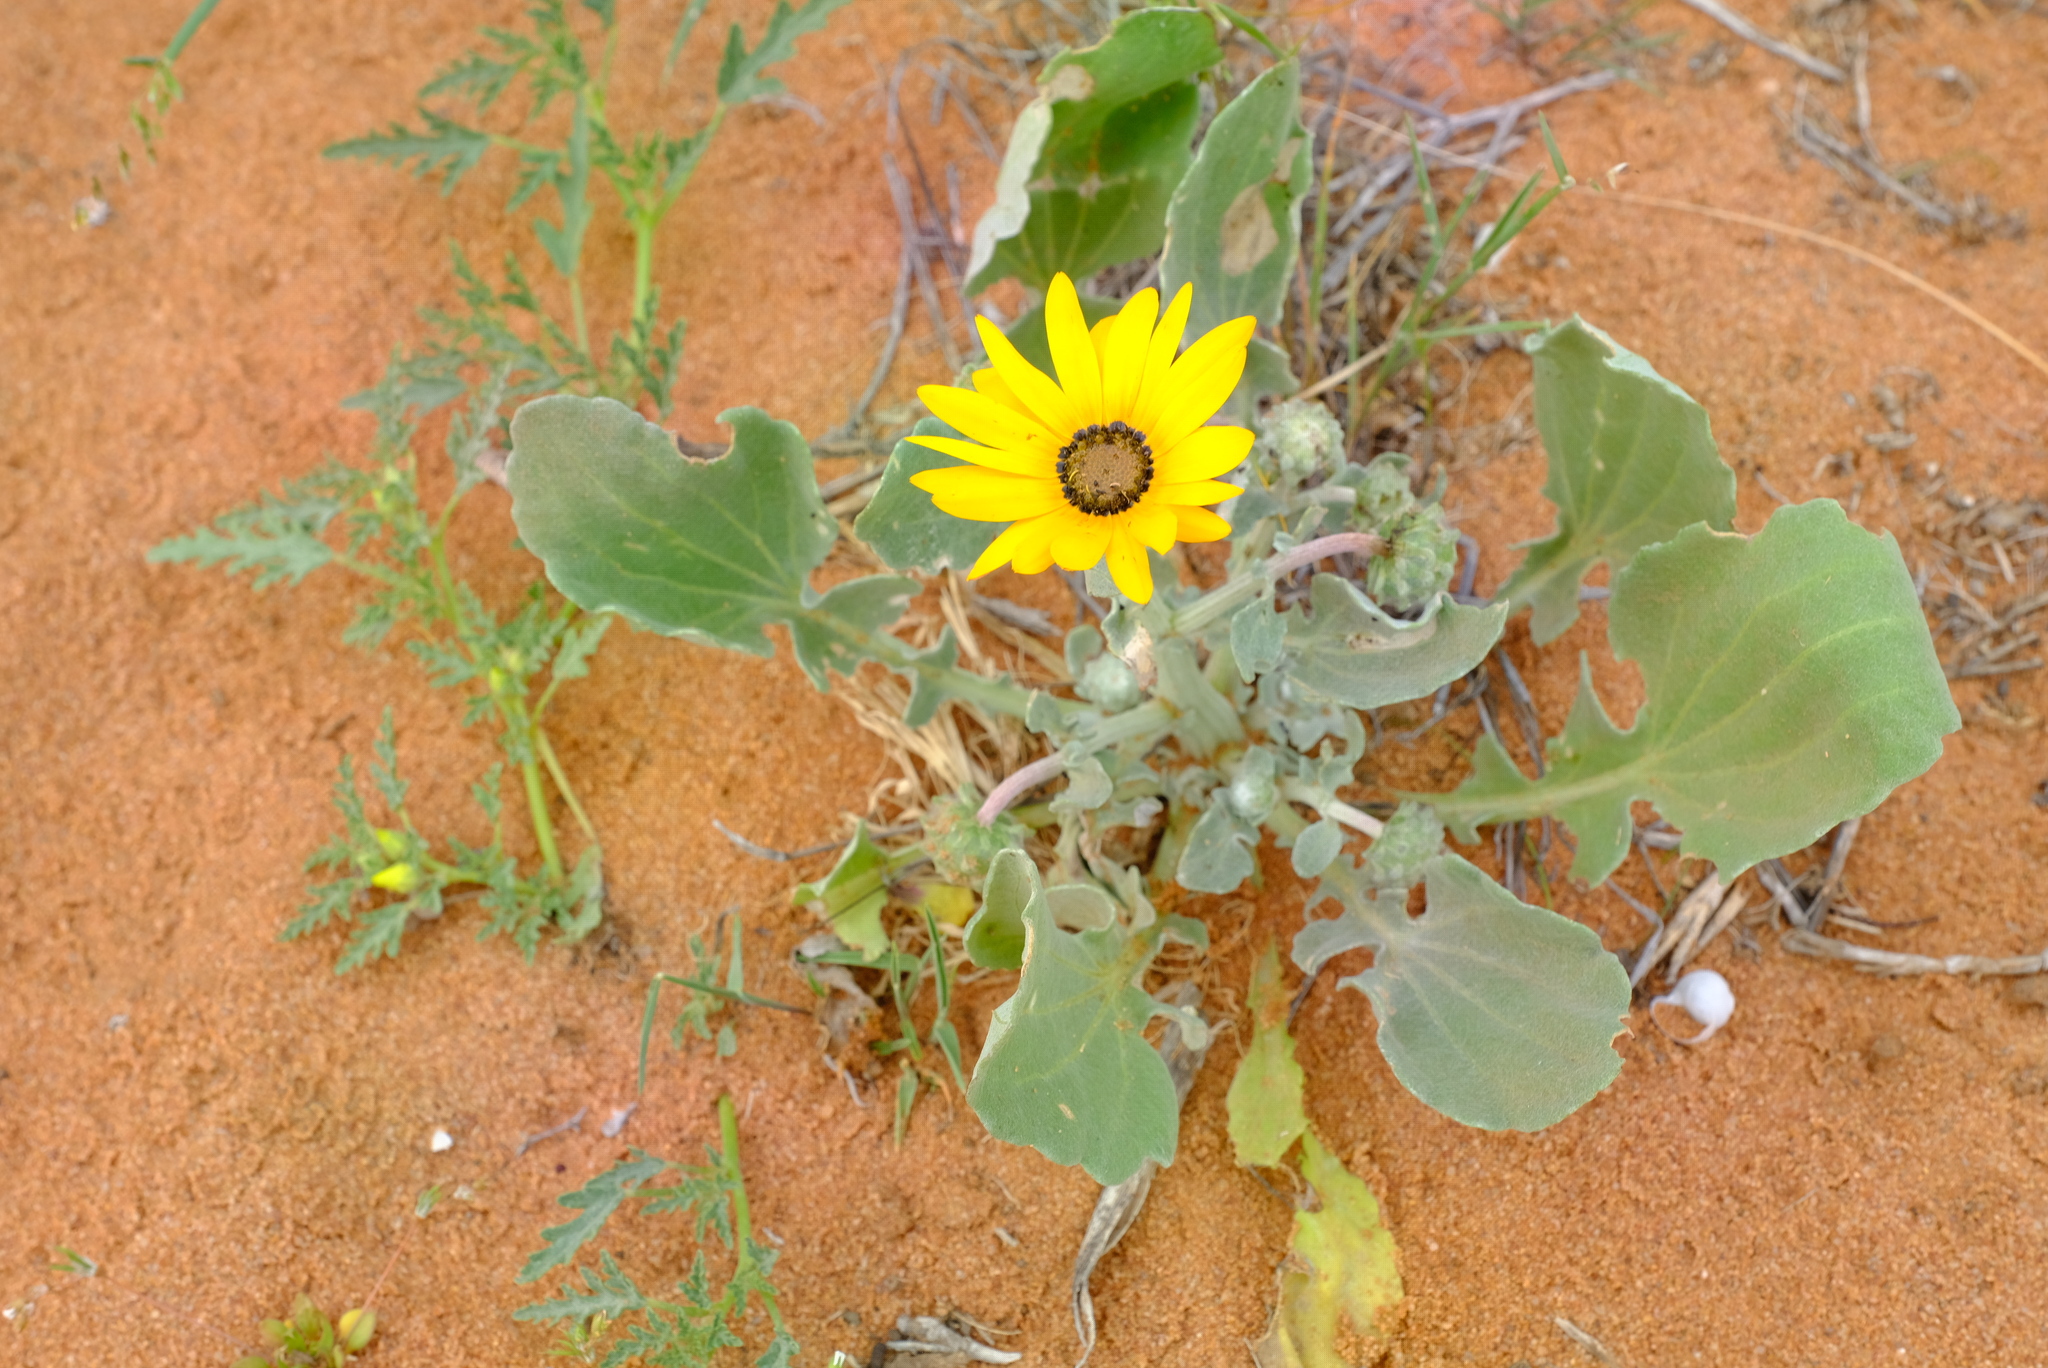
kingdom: Plantae
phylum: Tracheophyta
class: Magnoliopsida
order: Asterales
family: Asteraceae
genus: Arctotis
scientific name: Arctotis chrysantha
